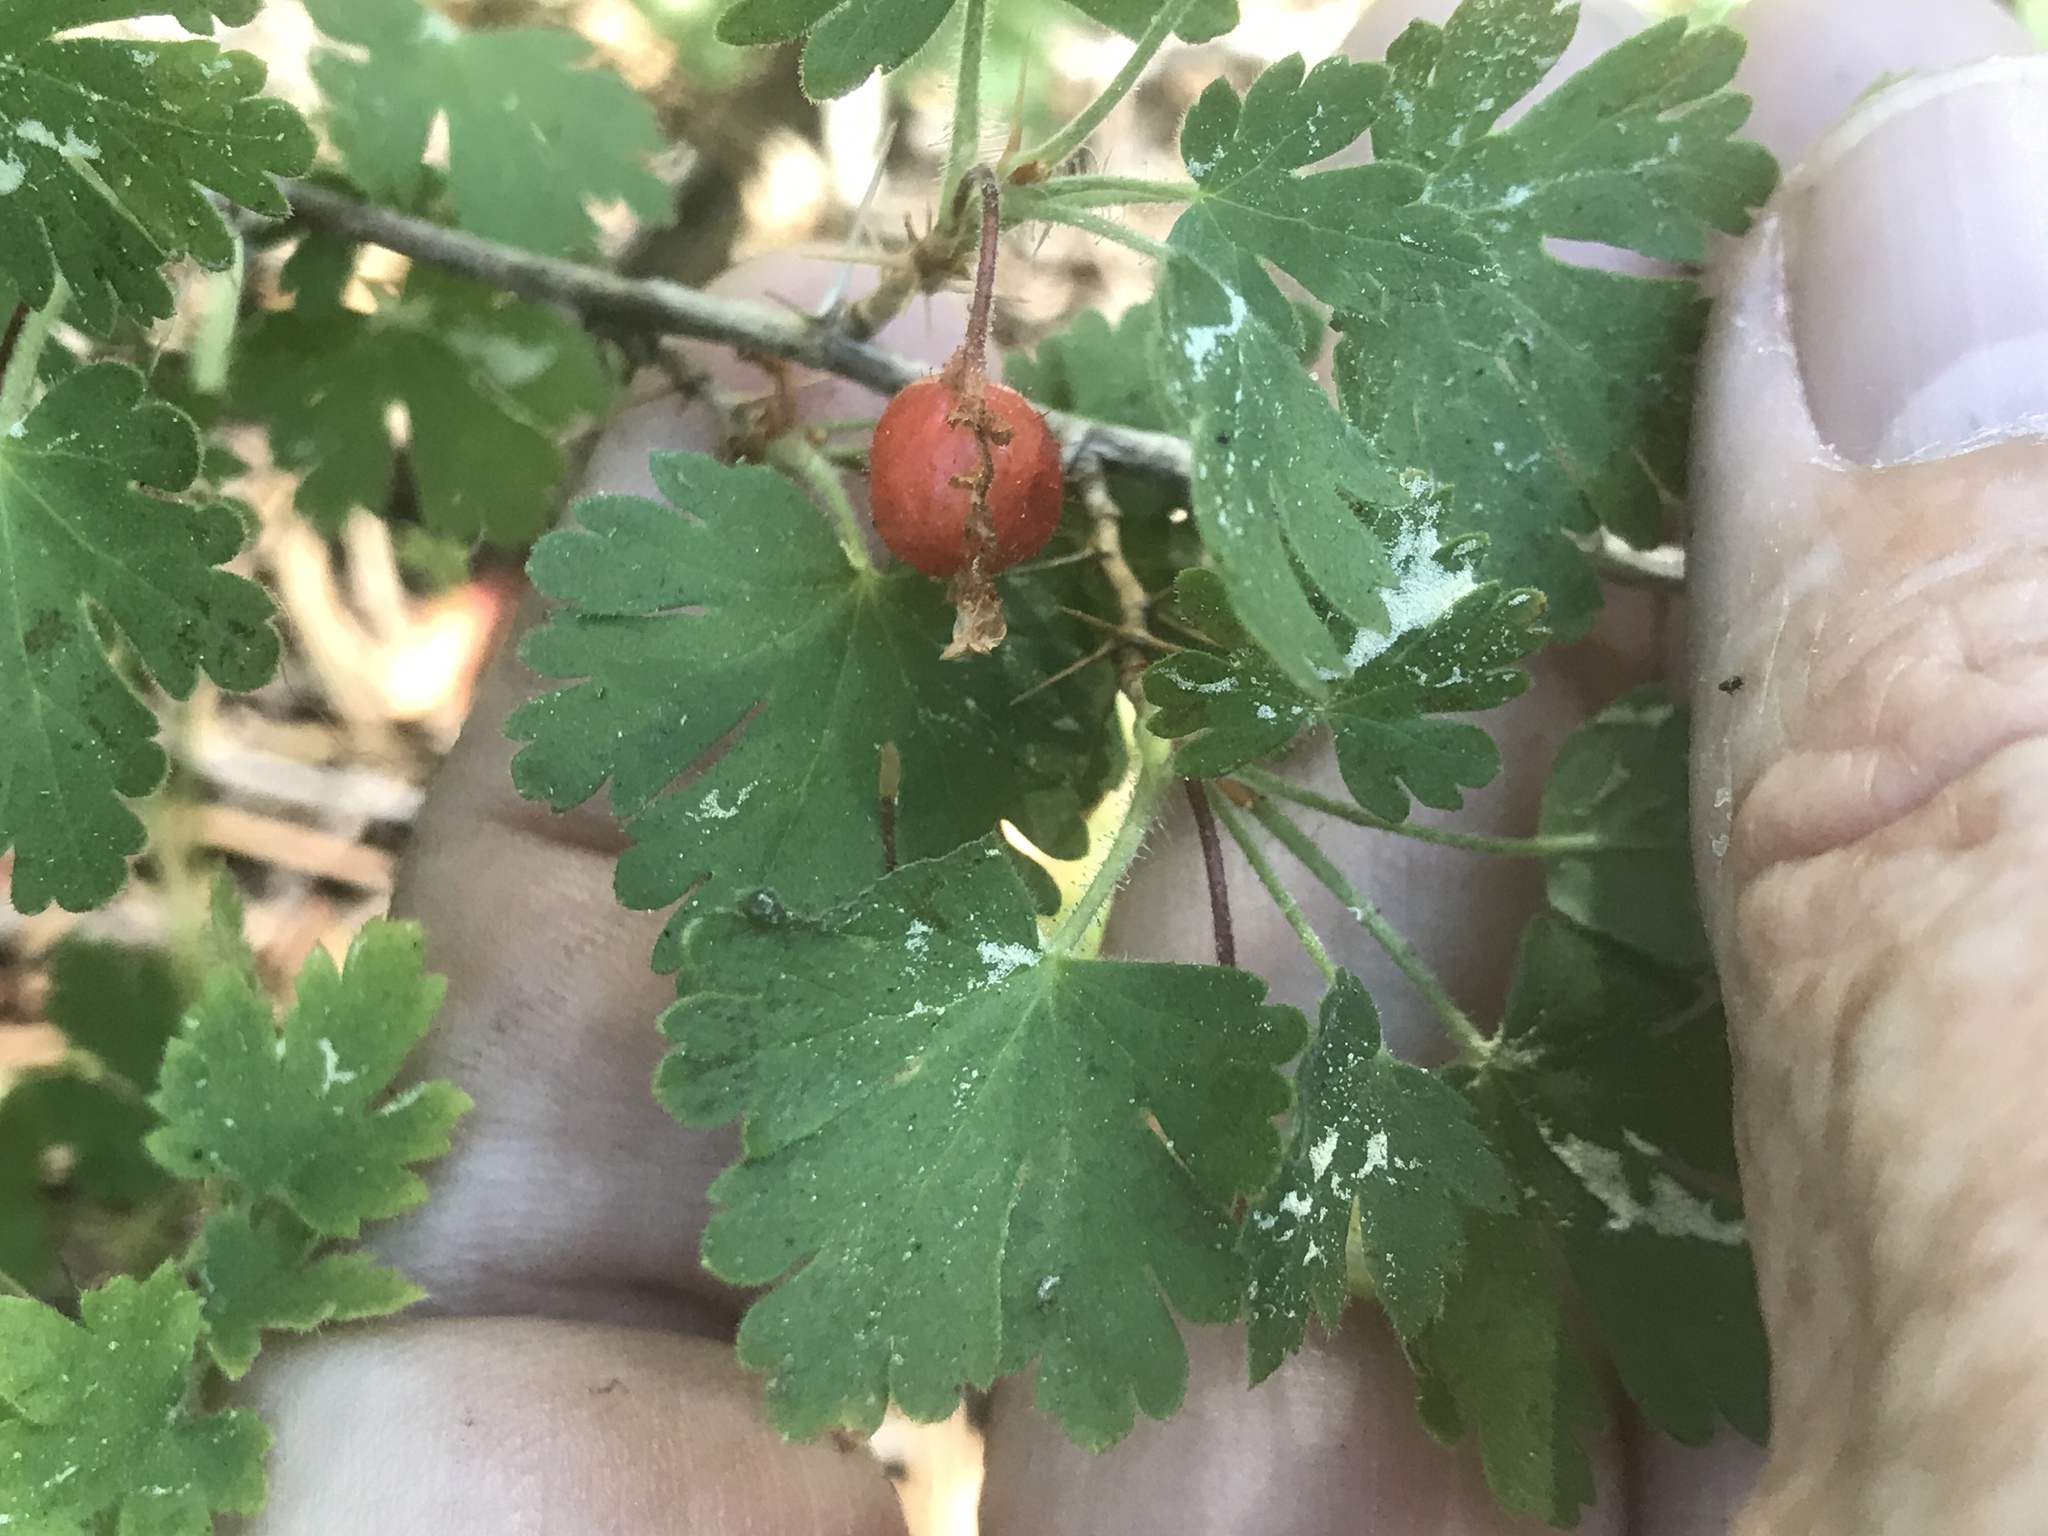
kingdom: Plantae
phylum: Tracheophyta
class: Magnoliopsida
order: Saxifragales
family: Grossulariaceae
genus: Ribes
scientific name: Ribes montigenum
